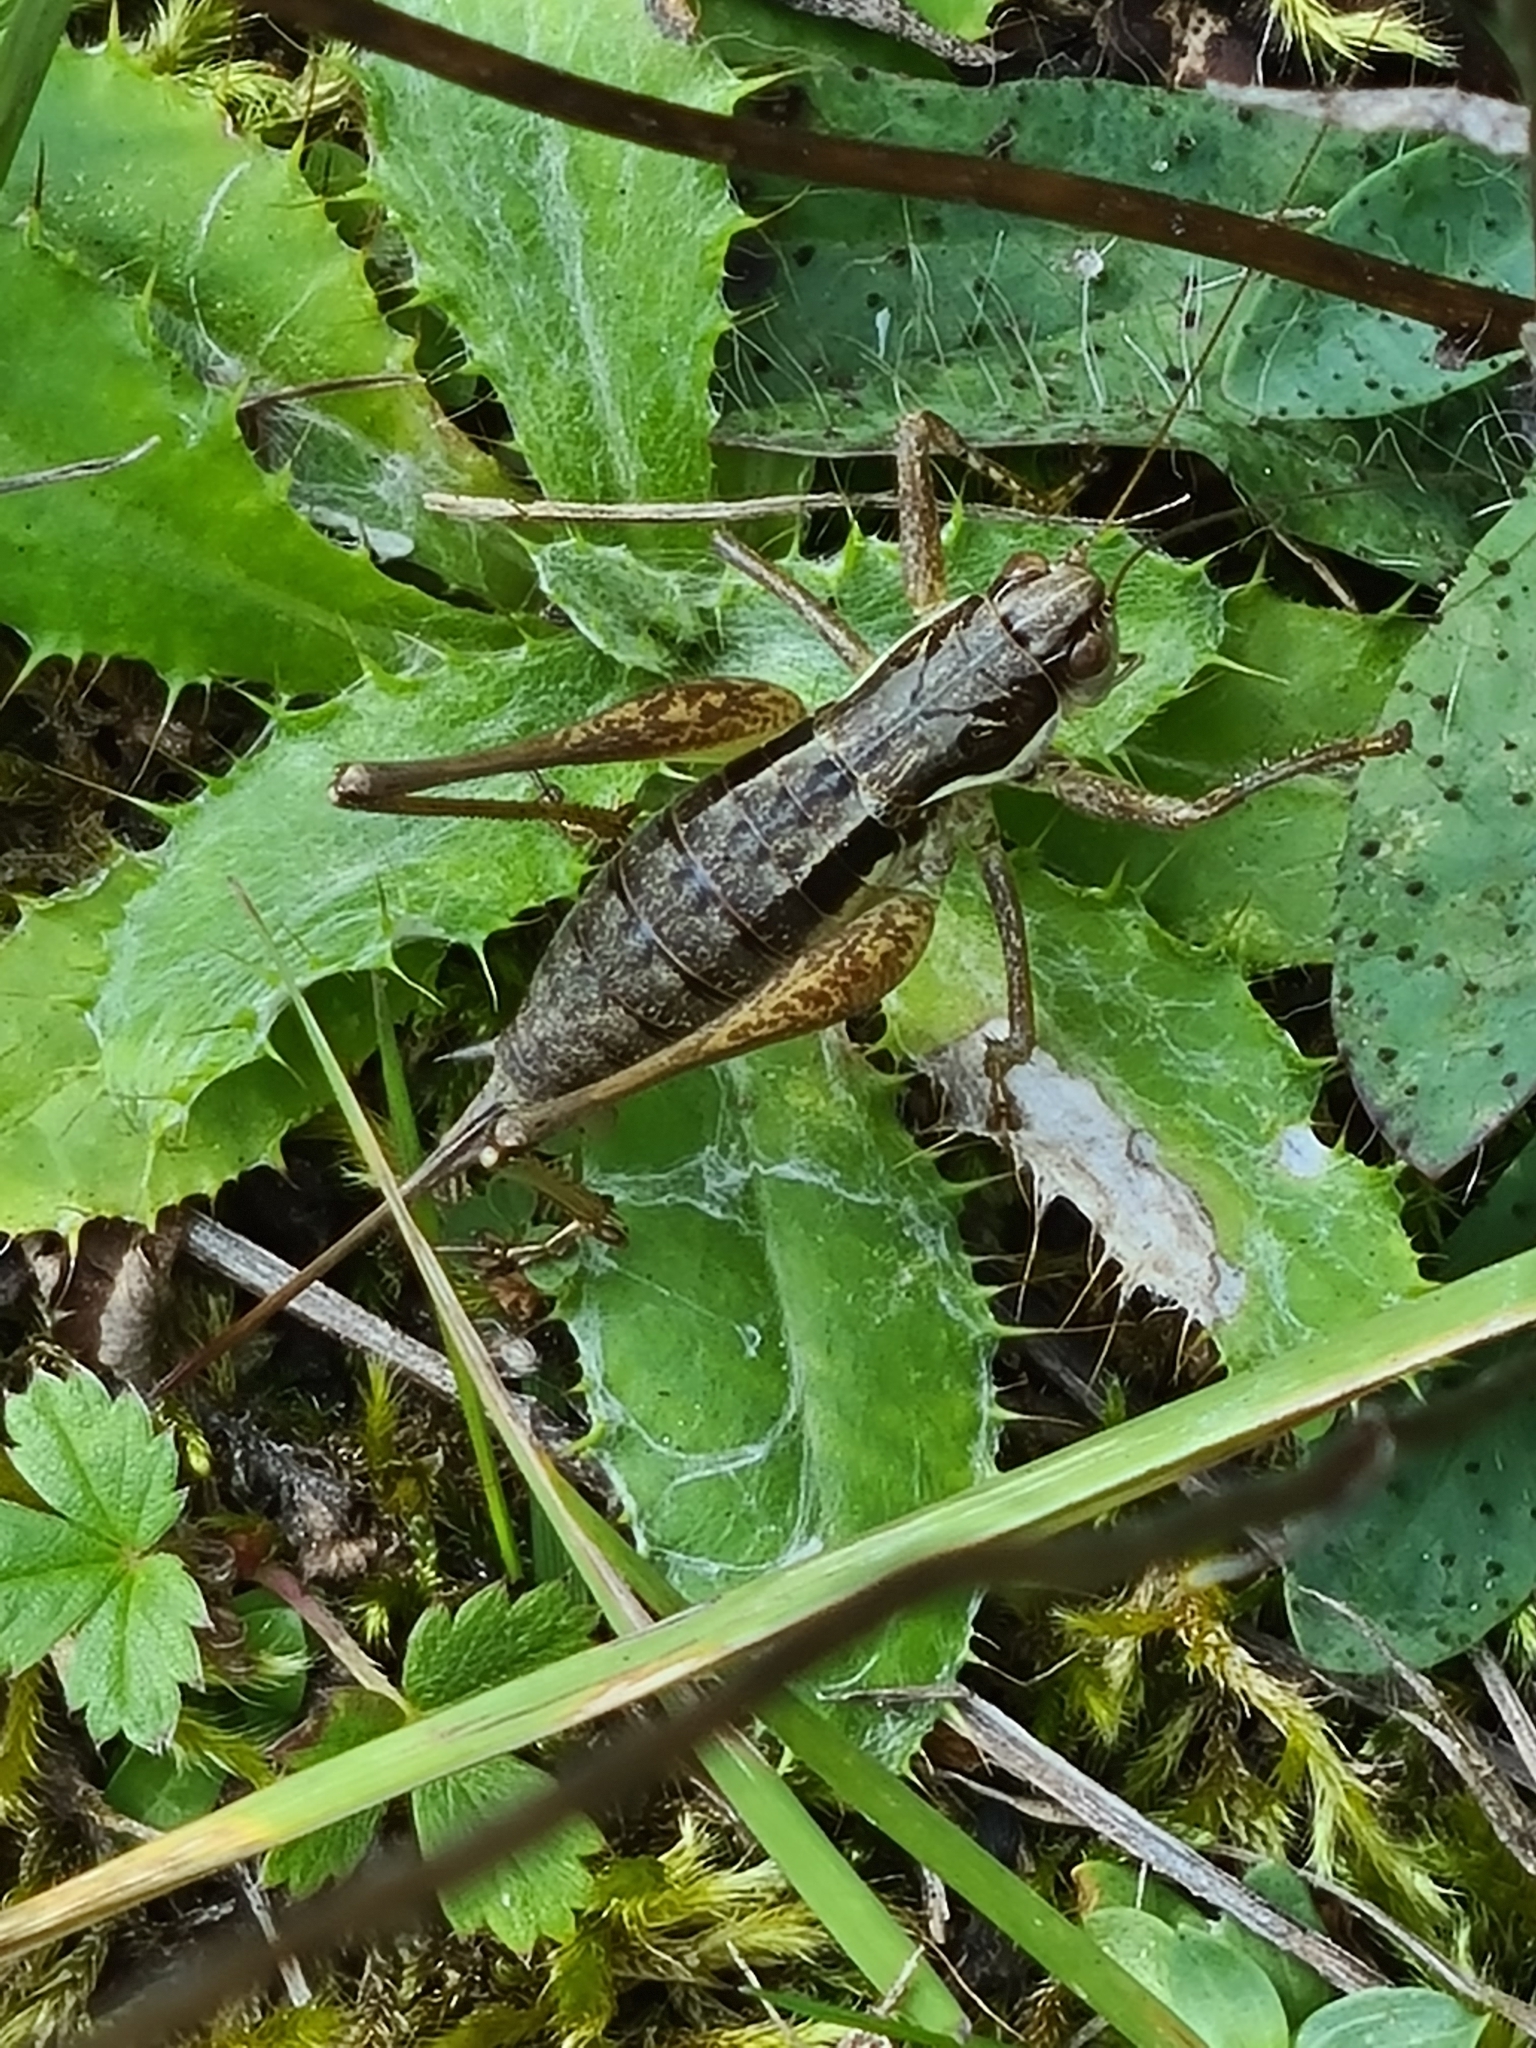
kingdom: Animalia
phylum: Arthropoda
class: Insecta
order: Orthoptera
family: Tettigoniidae
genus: Pachytrachis
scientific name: Pachytrachis gracilis
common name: Graceful bush-cricket
